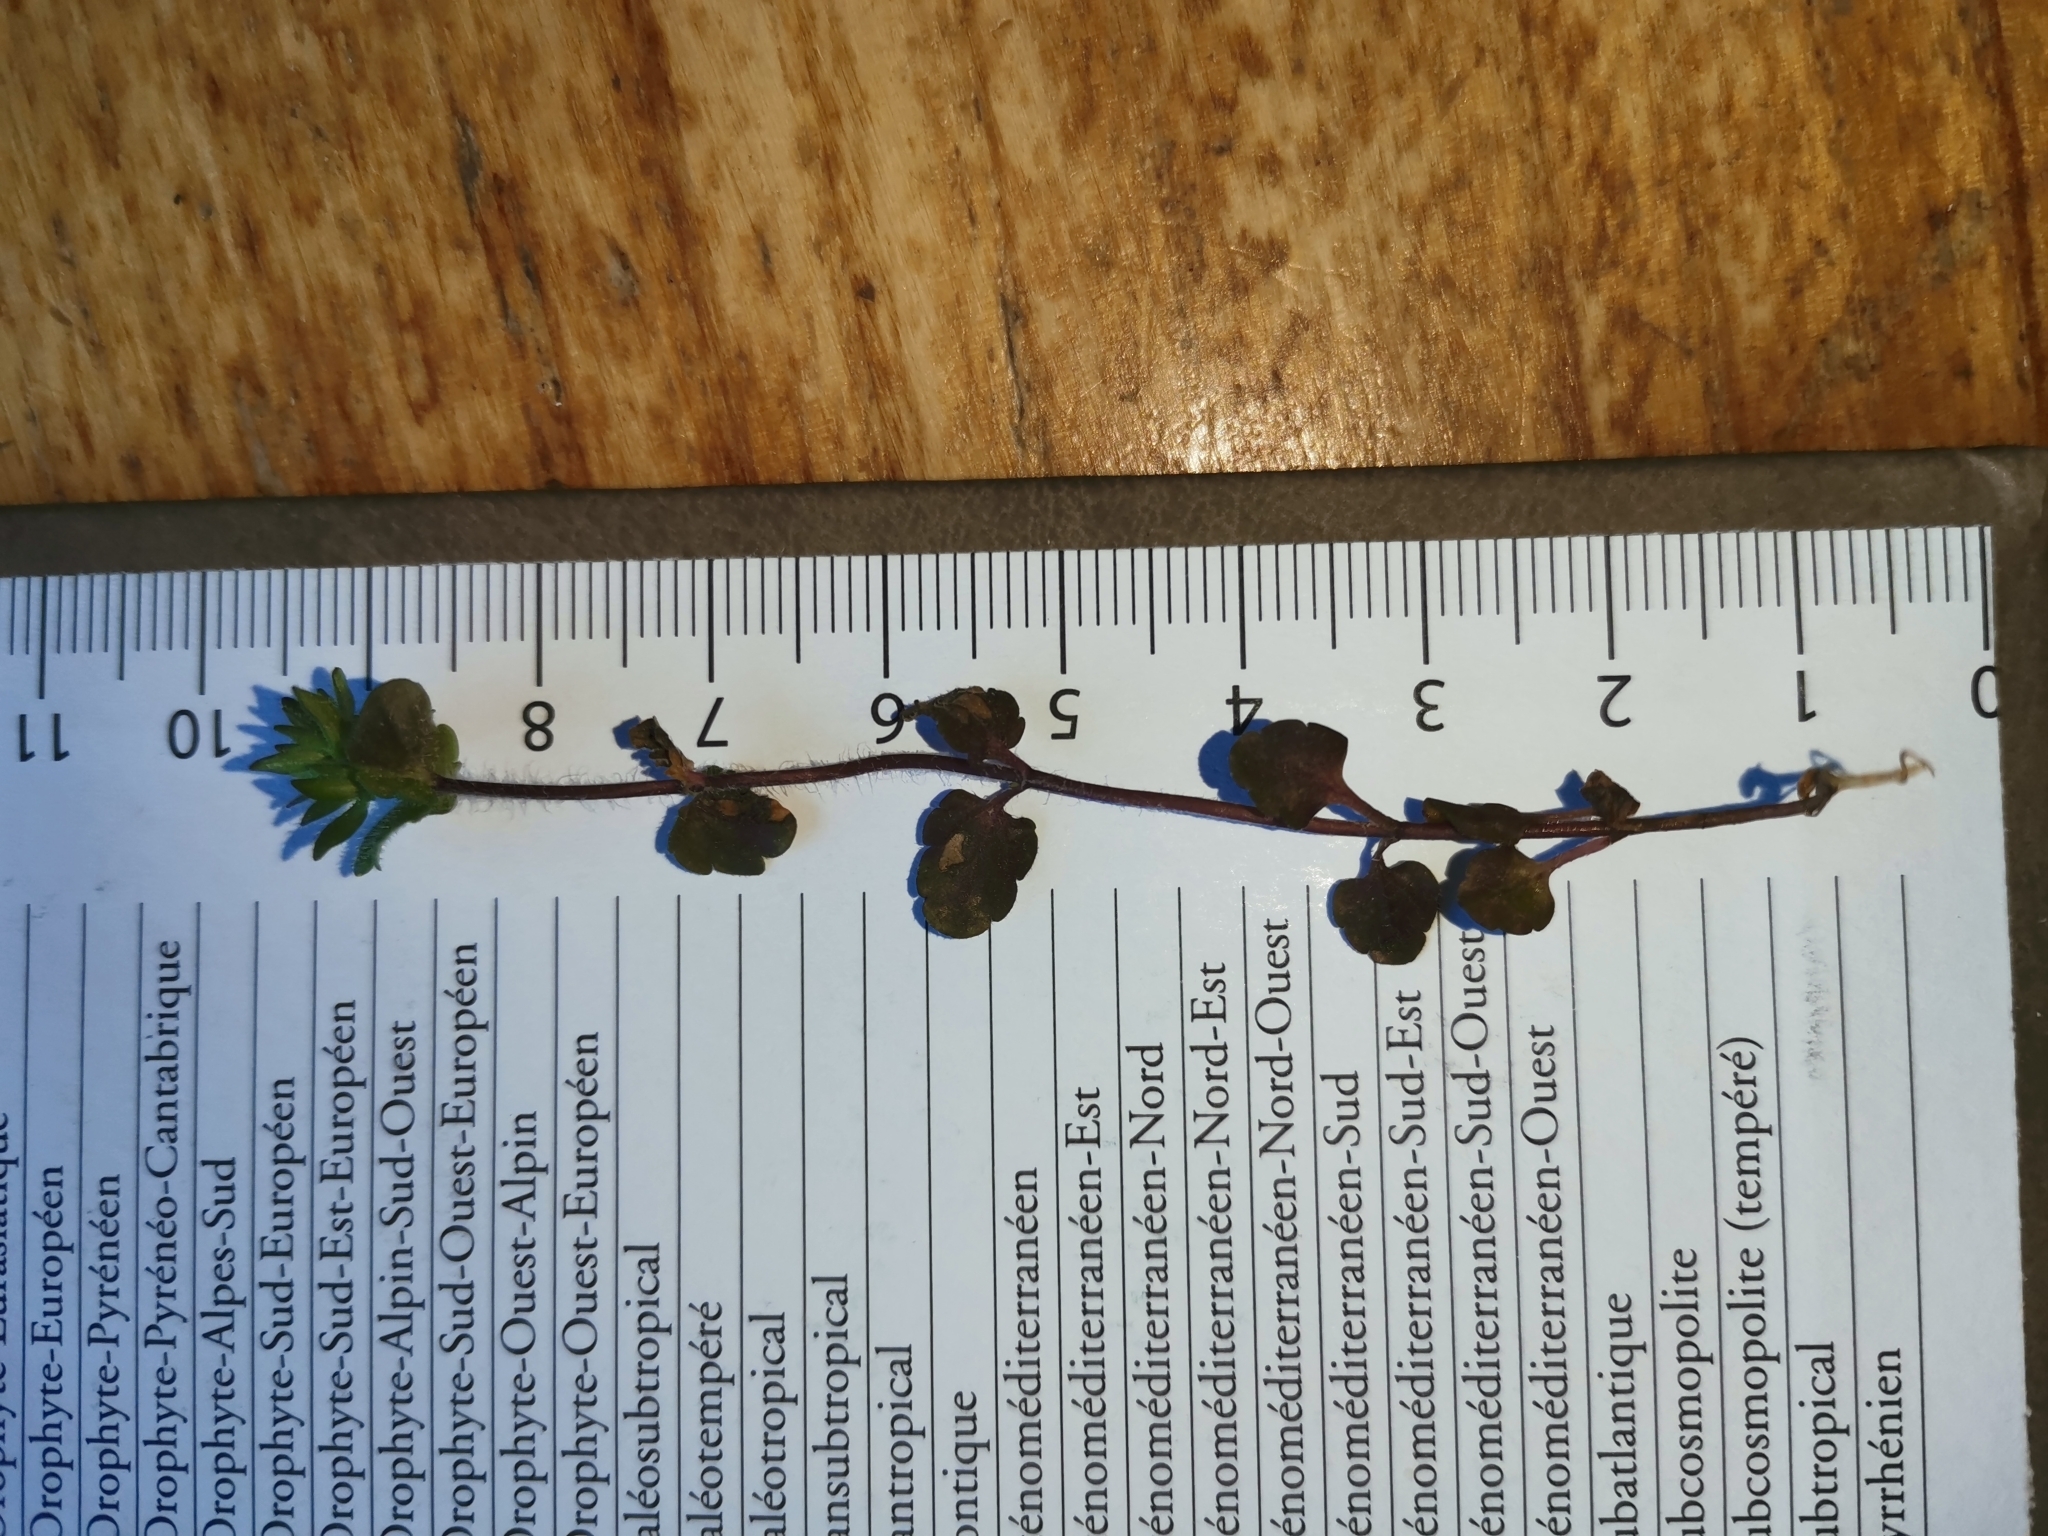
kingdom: Plantae
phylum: Tracheophyta
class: Magnoliopsida
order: Lamiales
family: Plantaginaceae
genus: Veronica
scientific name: Veronica arvensis
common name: Corn speedwell
